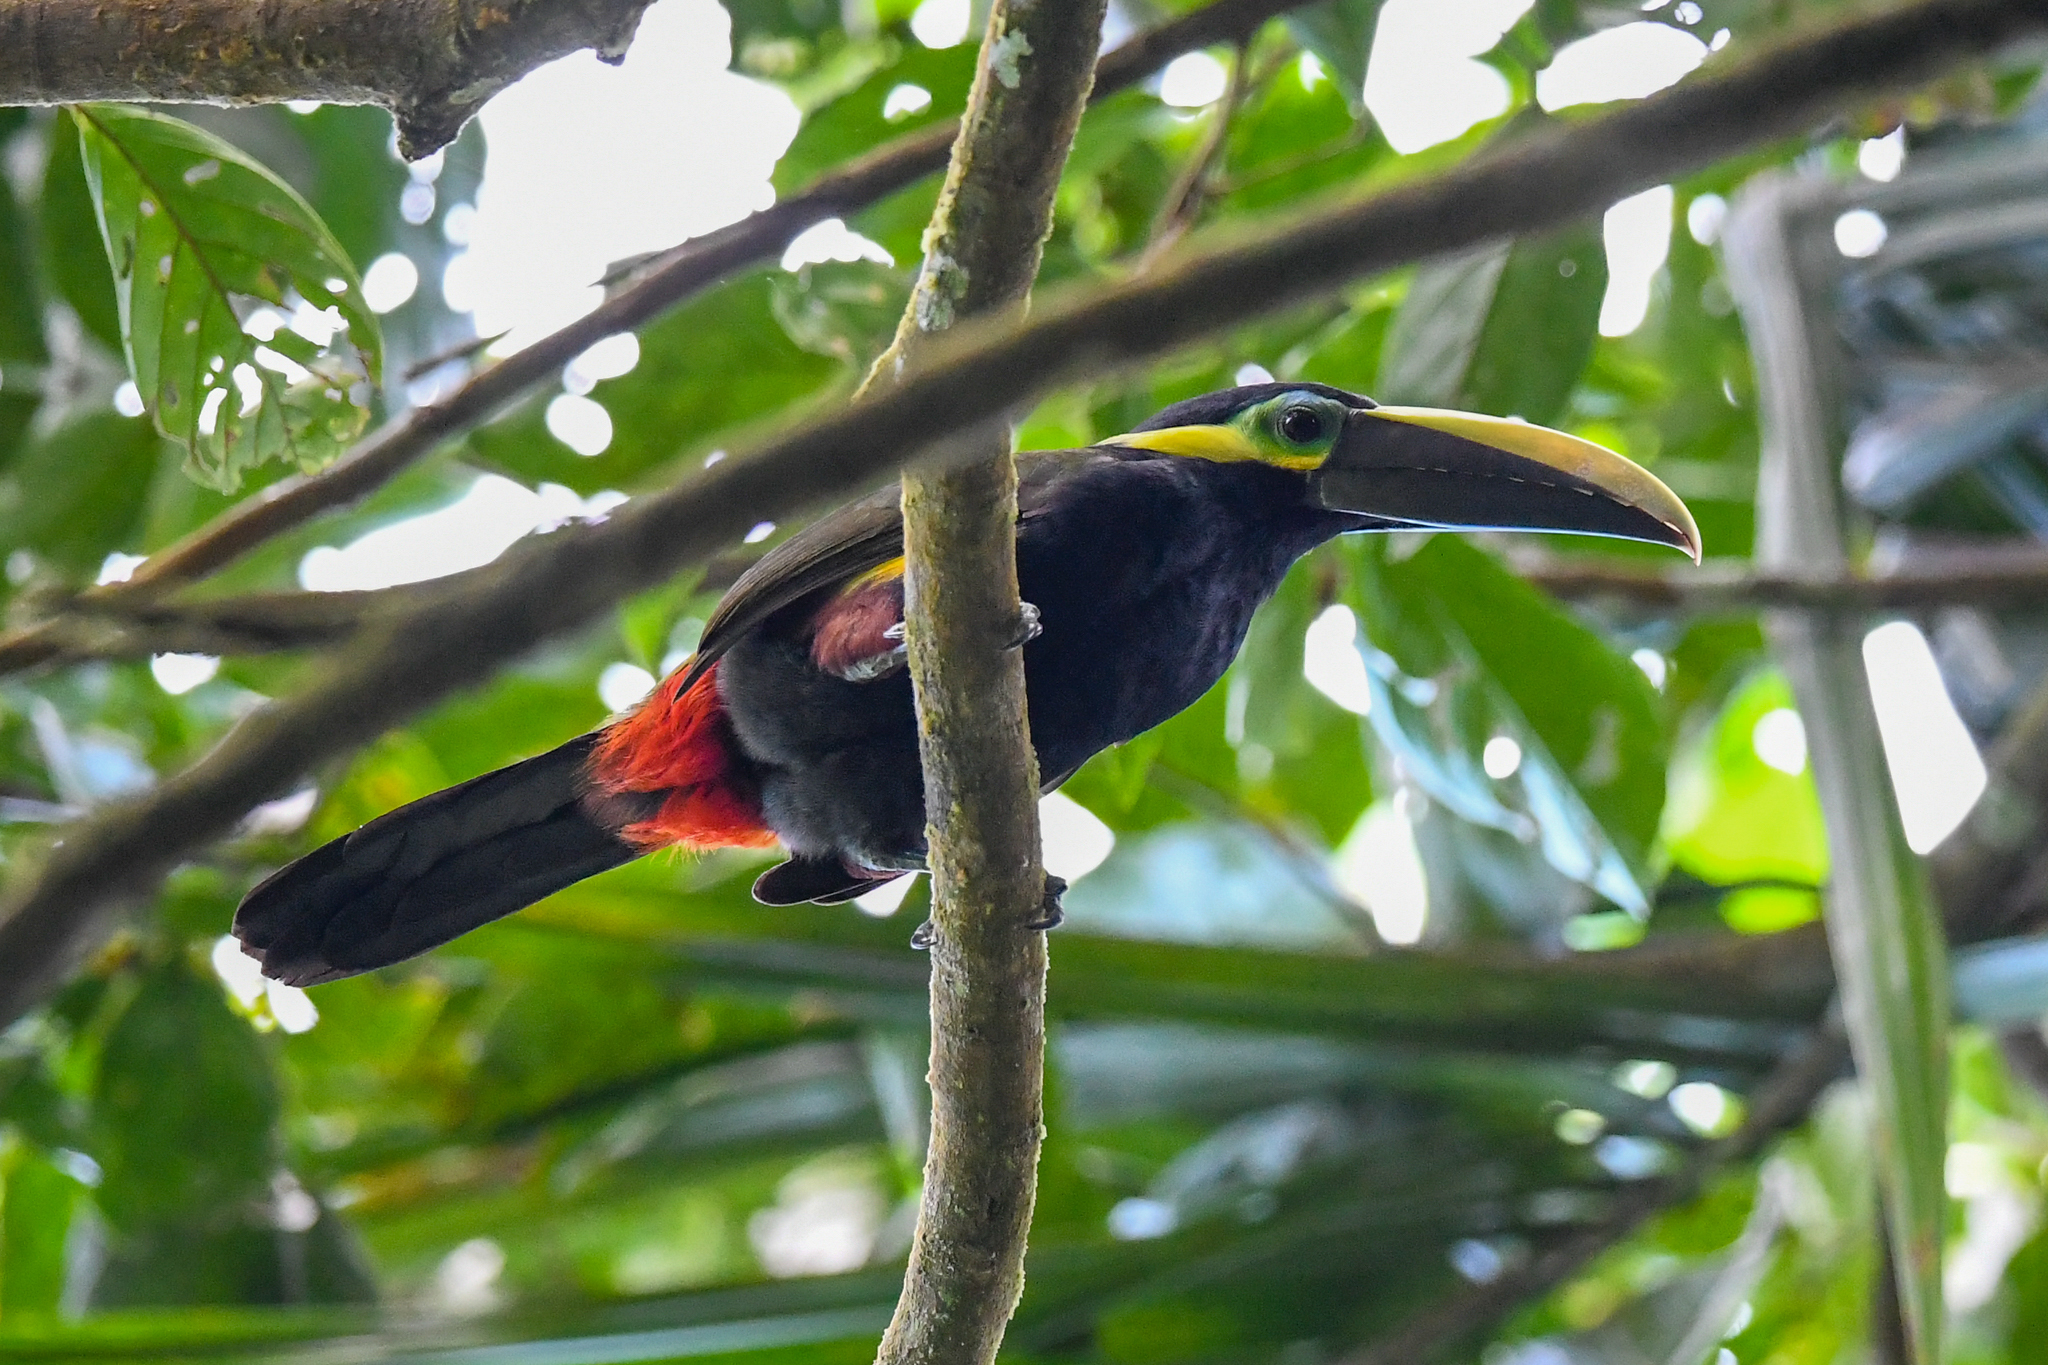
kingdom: Animalia
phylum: Chordata
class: Aves
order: Piciformes
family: Ramphastidae
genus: Selenidera
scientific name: Selenidera spectabilis
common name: Yellow-eared toucanet
